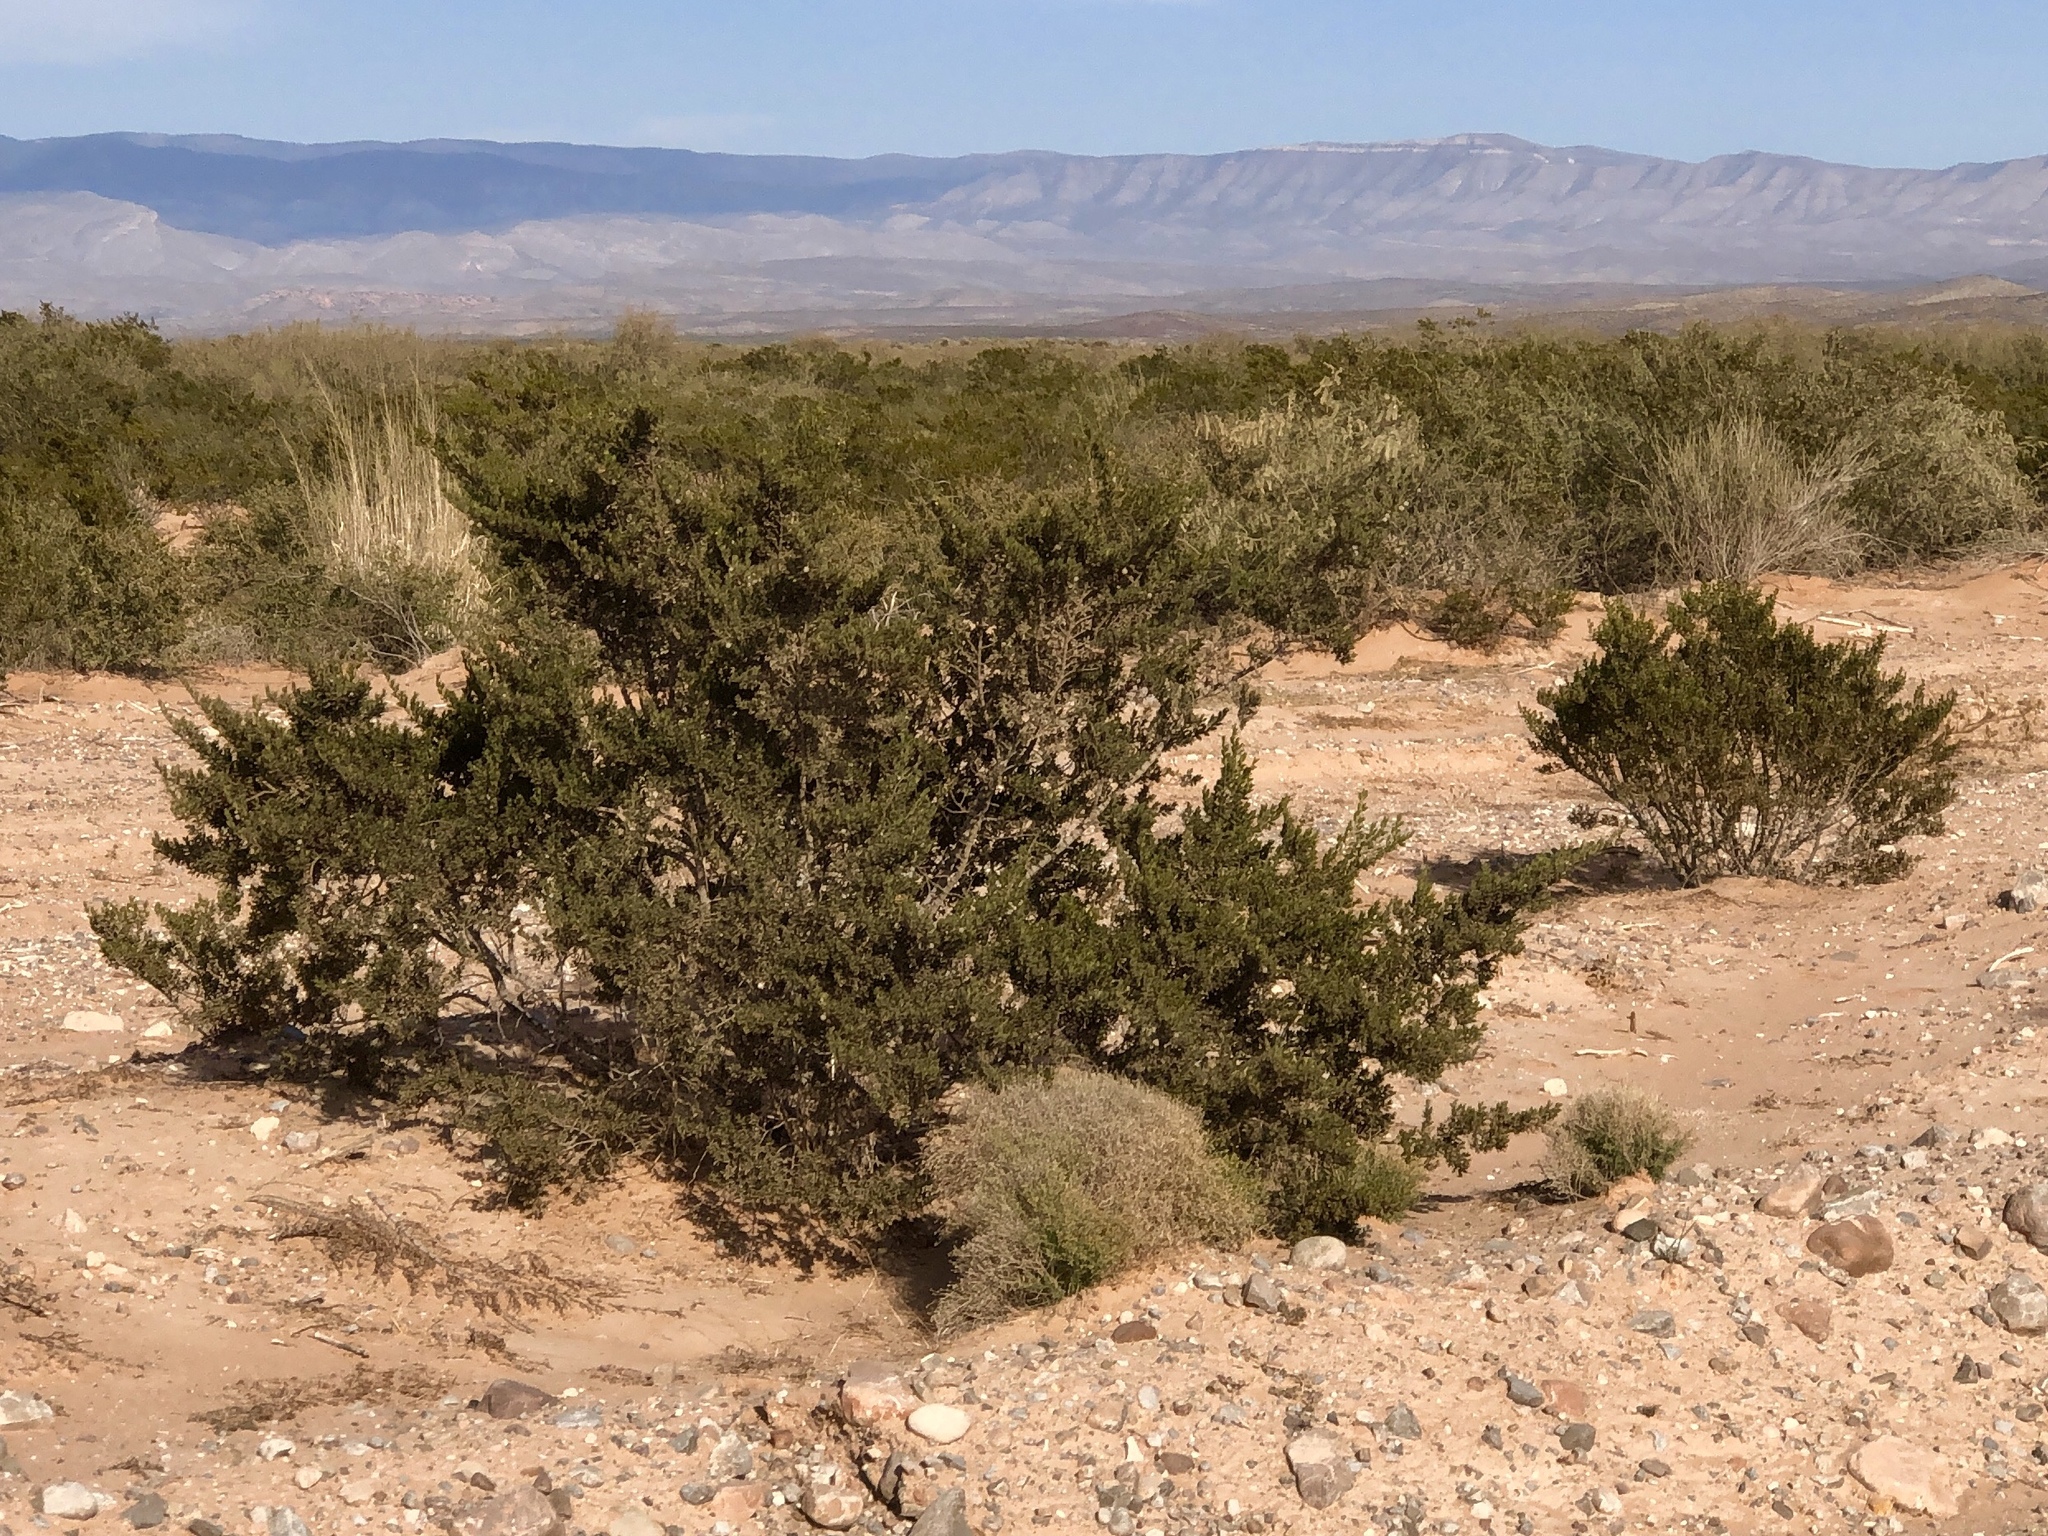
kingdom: Plantae
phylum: Tracheophyta
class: Magnoliopsida
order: Zygophyllales
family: Zygophyllaceae
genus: Larrea
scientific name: Larrea tridentata
